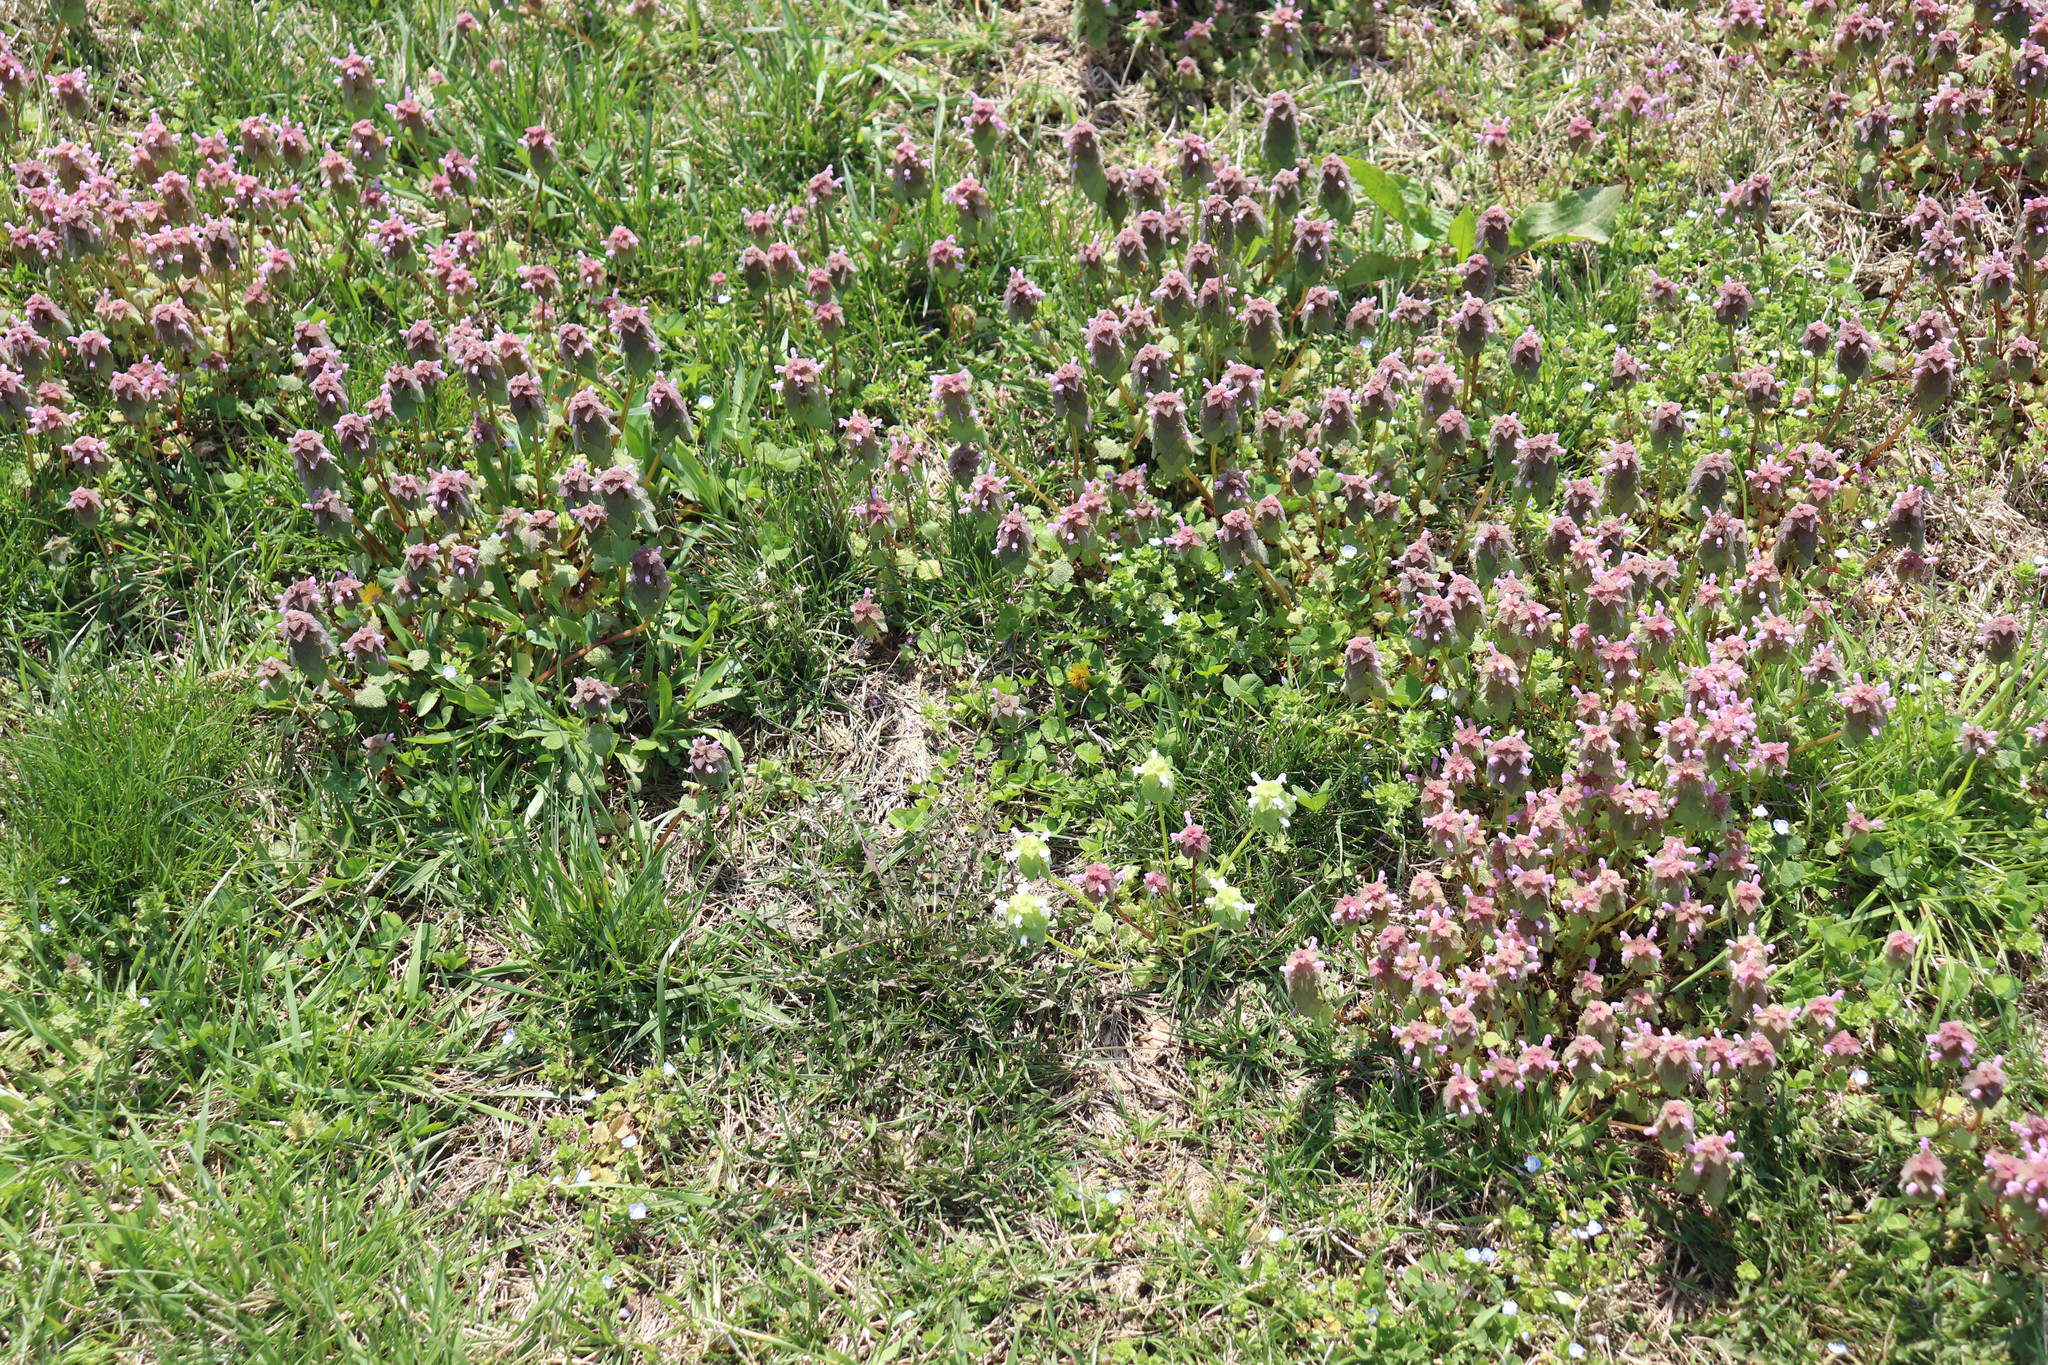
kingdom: Plantae
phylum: Tracheophyta
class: Magnoliopsida
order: Lamiales
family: Lamiaceae
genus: Lamium
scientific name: Lamium purpureum
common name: Red dead-nettle
